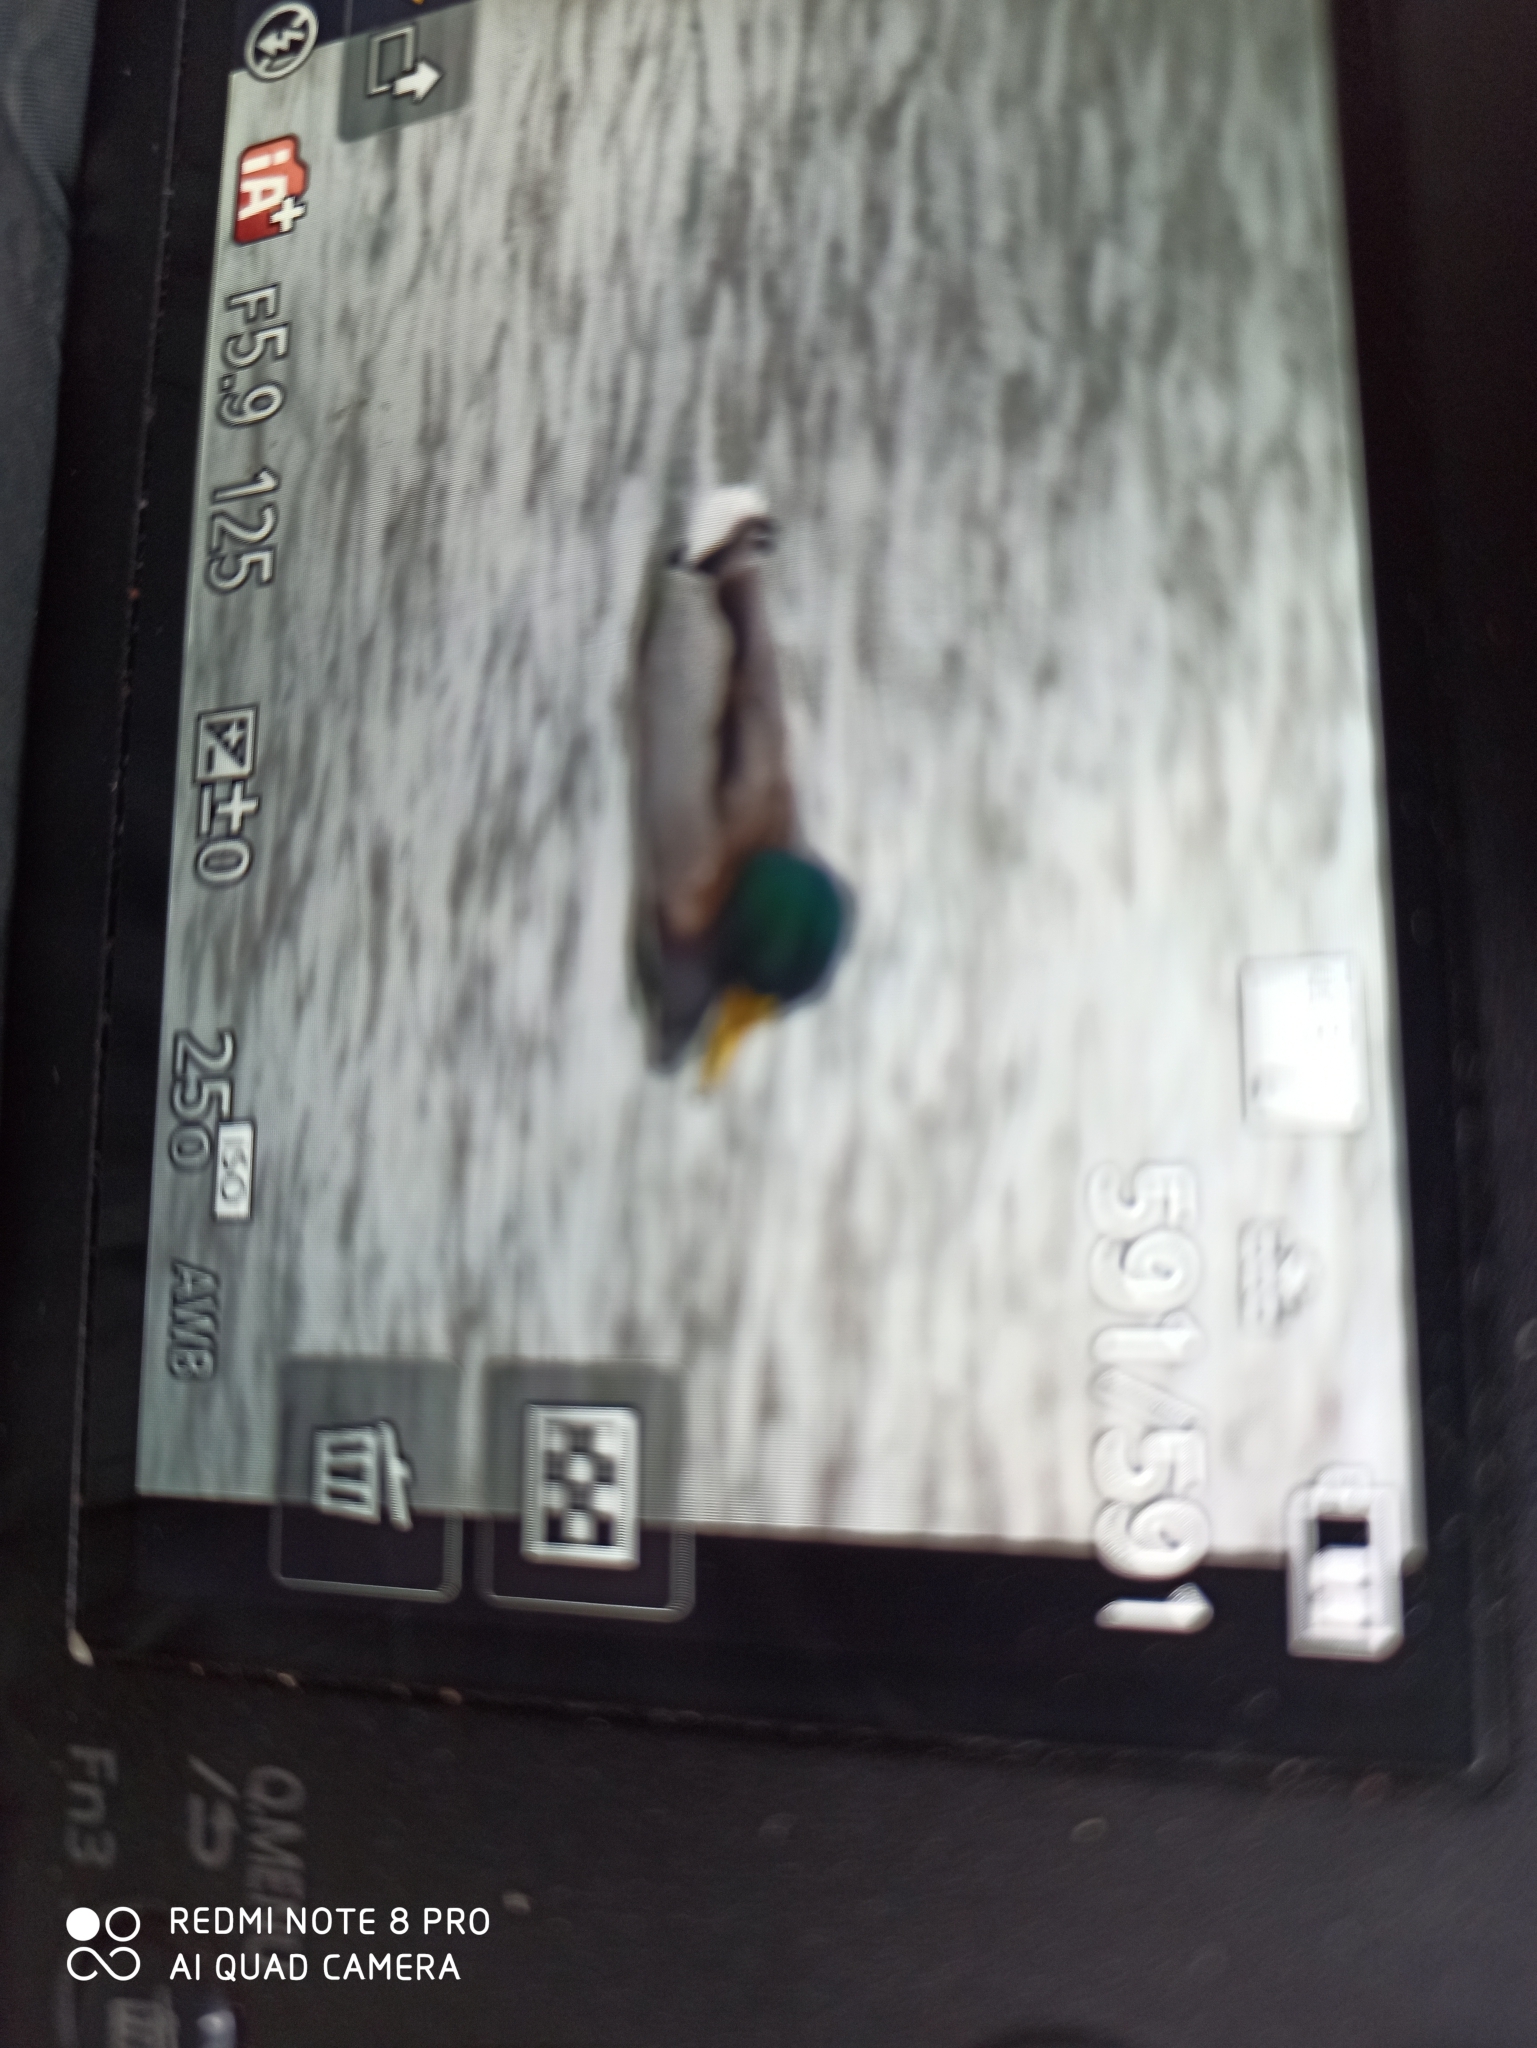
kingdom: Animalia
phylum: Chordata
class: Aves
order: Anseriformes
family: Anatidae
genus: Anas
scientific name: Anas platyrhynchos
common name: Mallard
